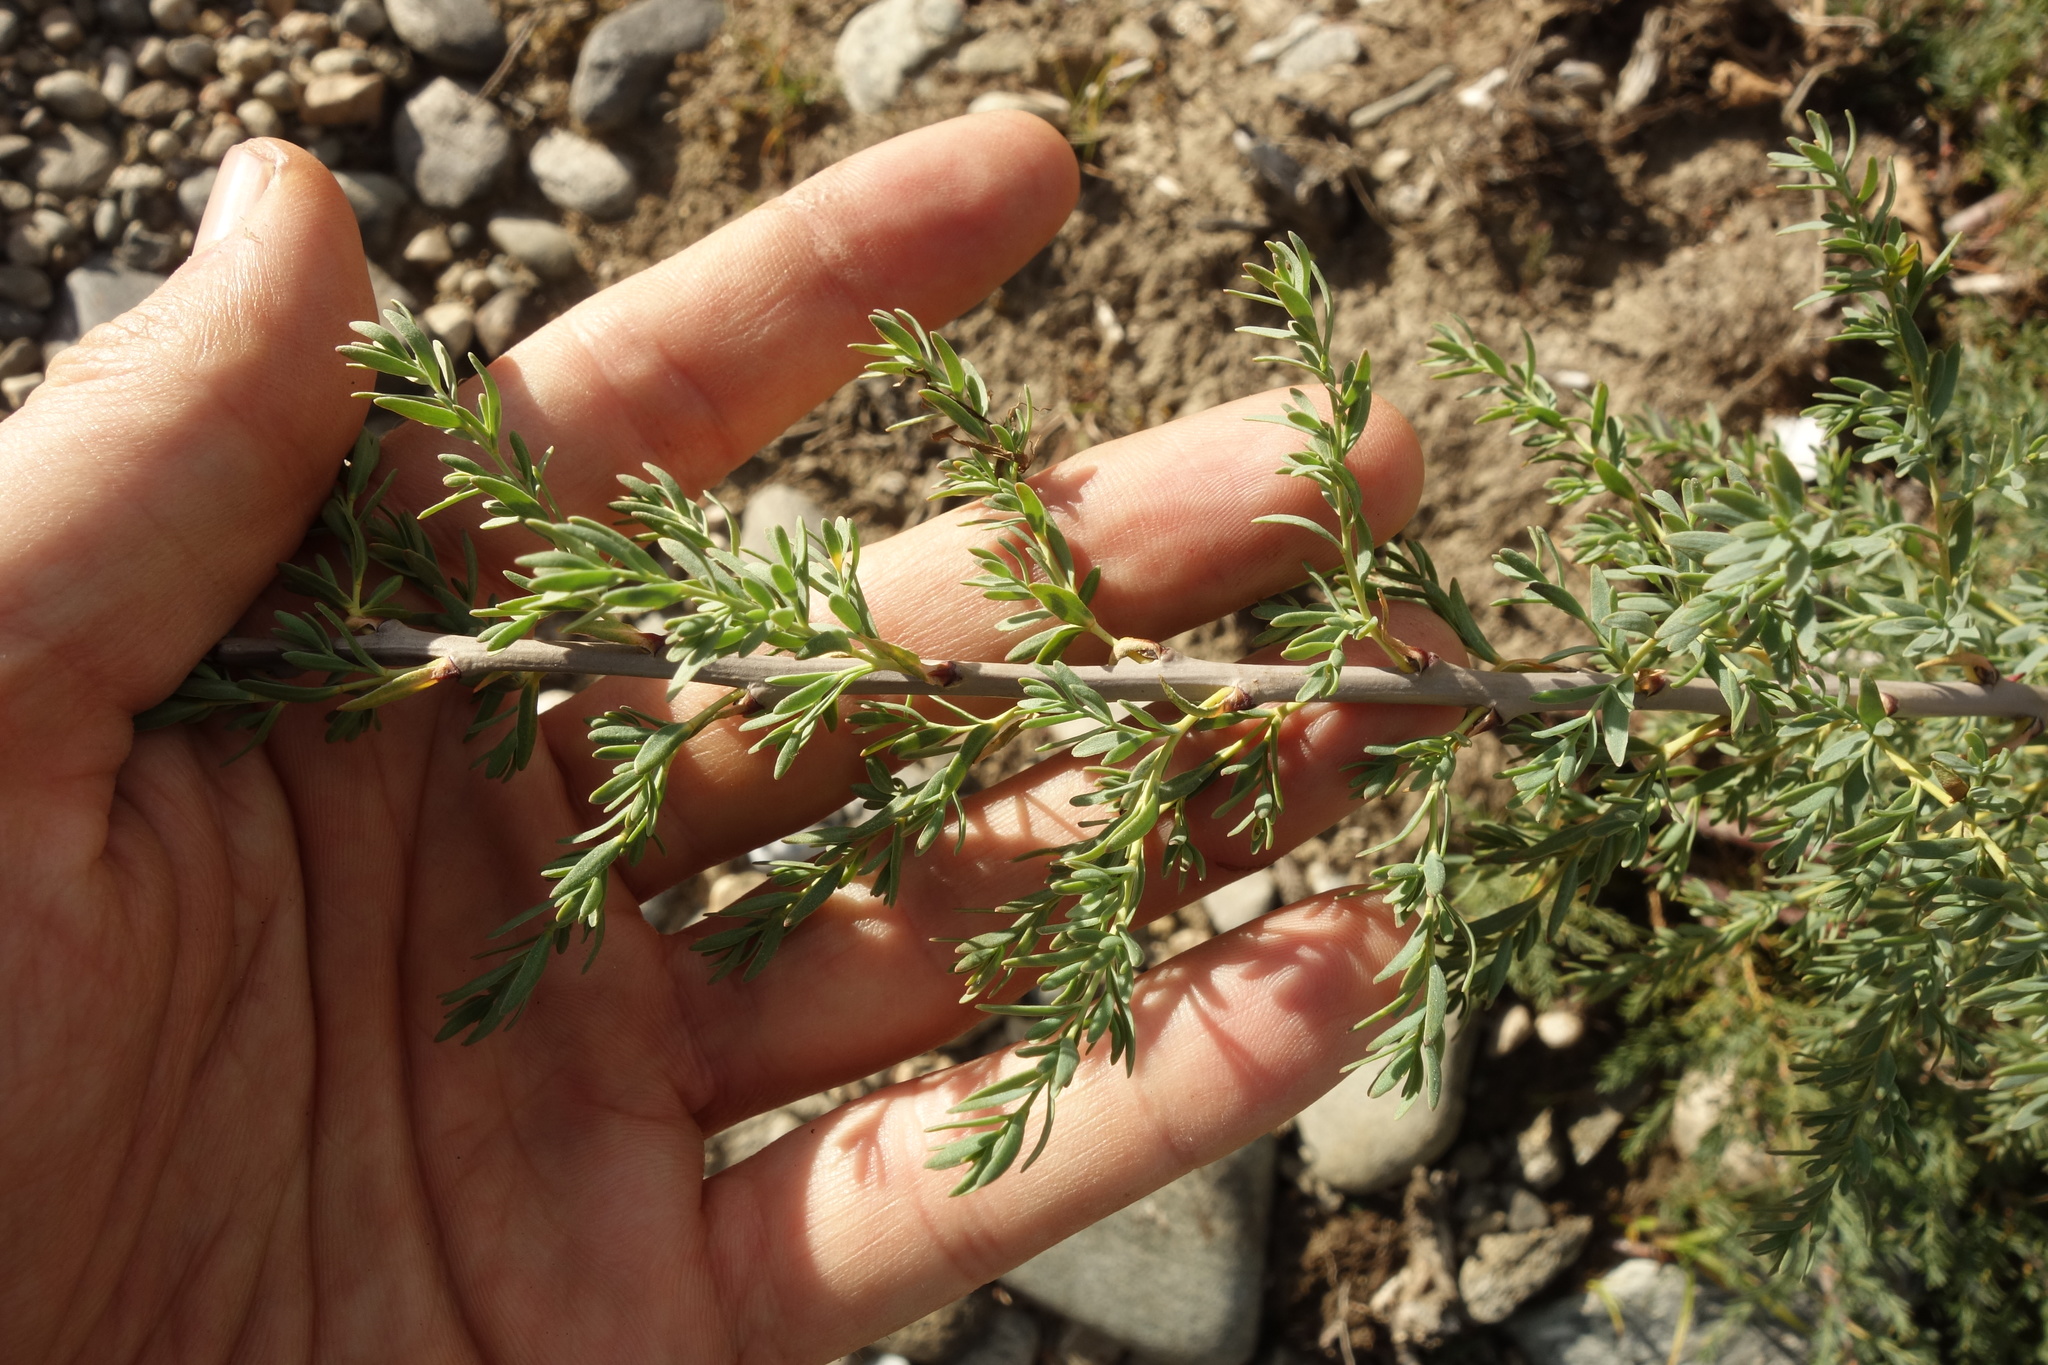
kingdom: Plantae
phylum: Tracheophyta
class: Magnoliopsida
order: Caryophyllales
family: Tamaricaceae
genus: Myricaria
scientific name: Myricaria longifolia
